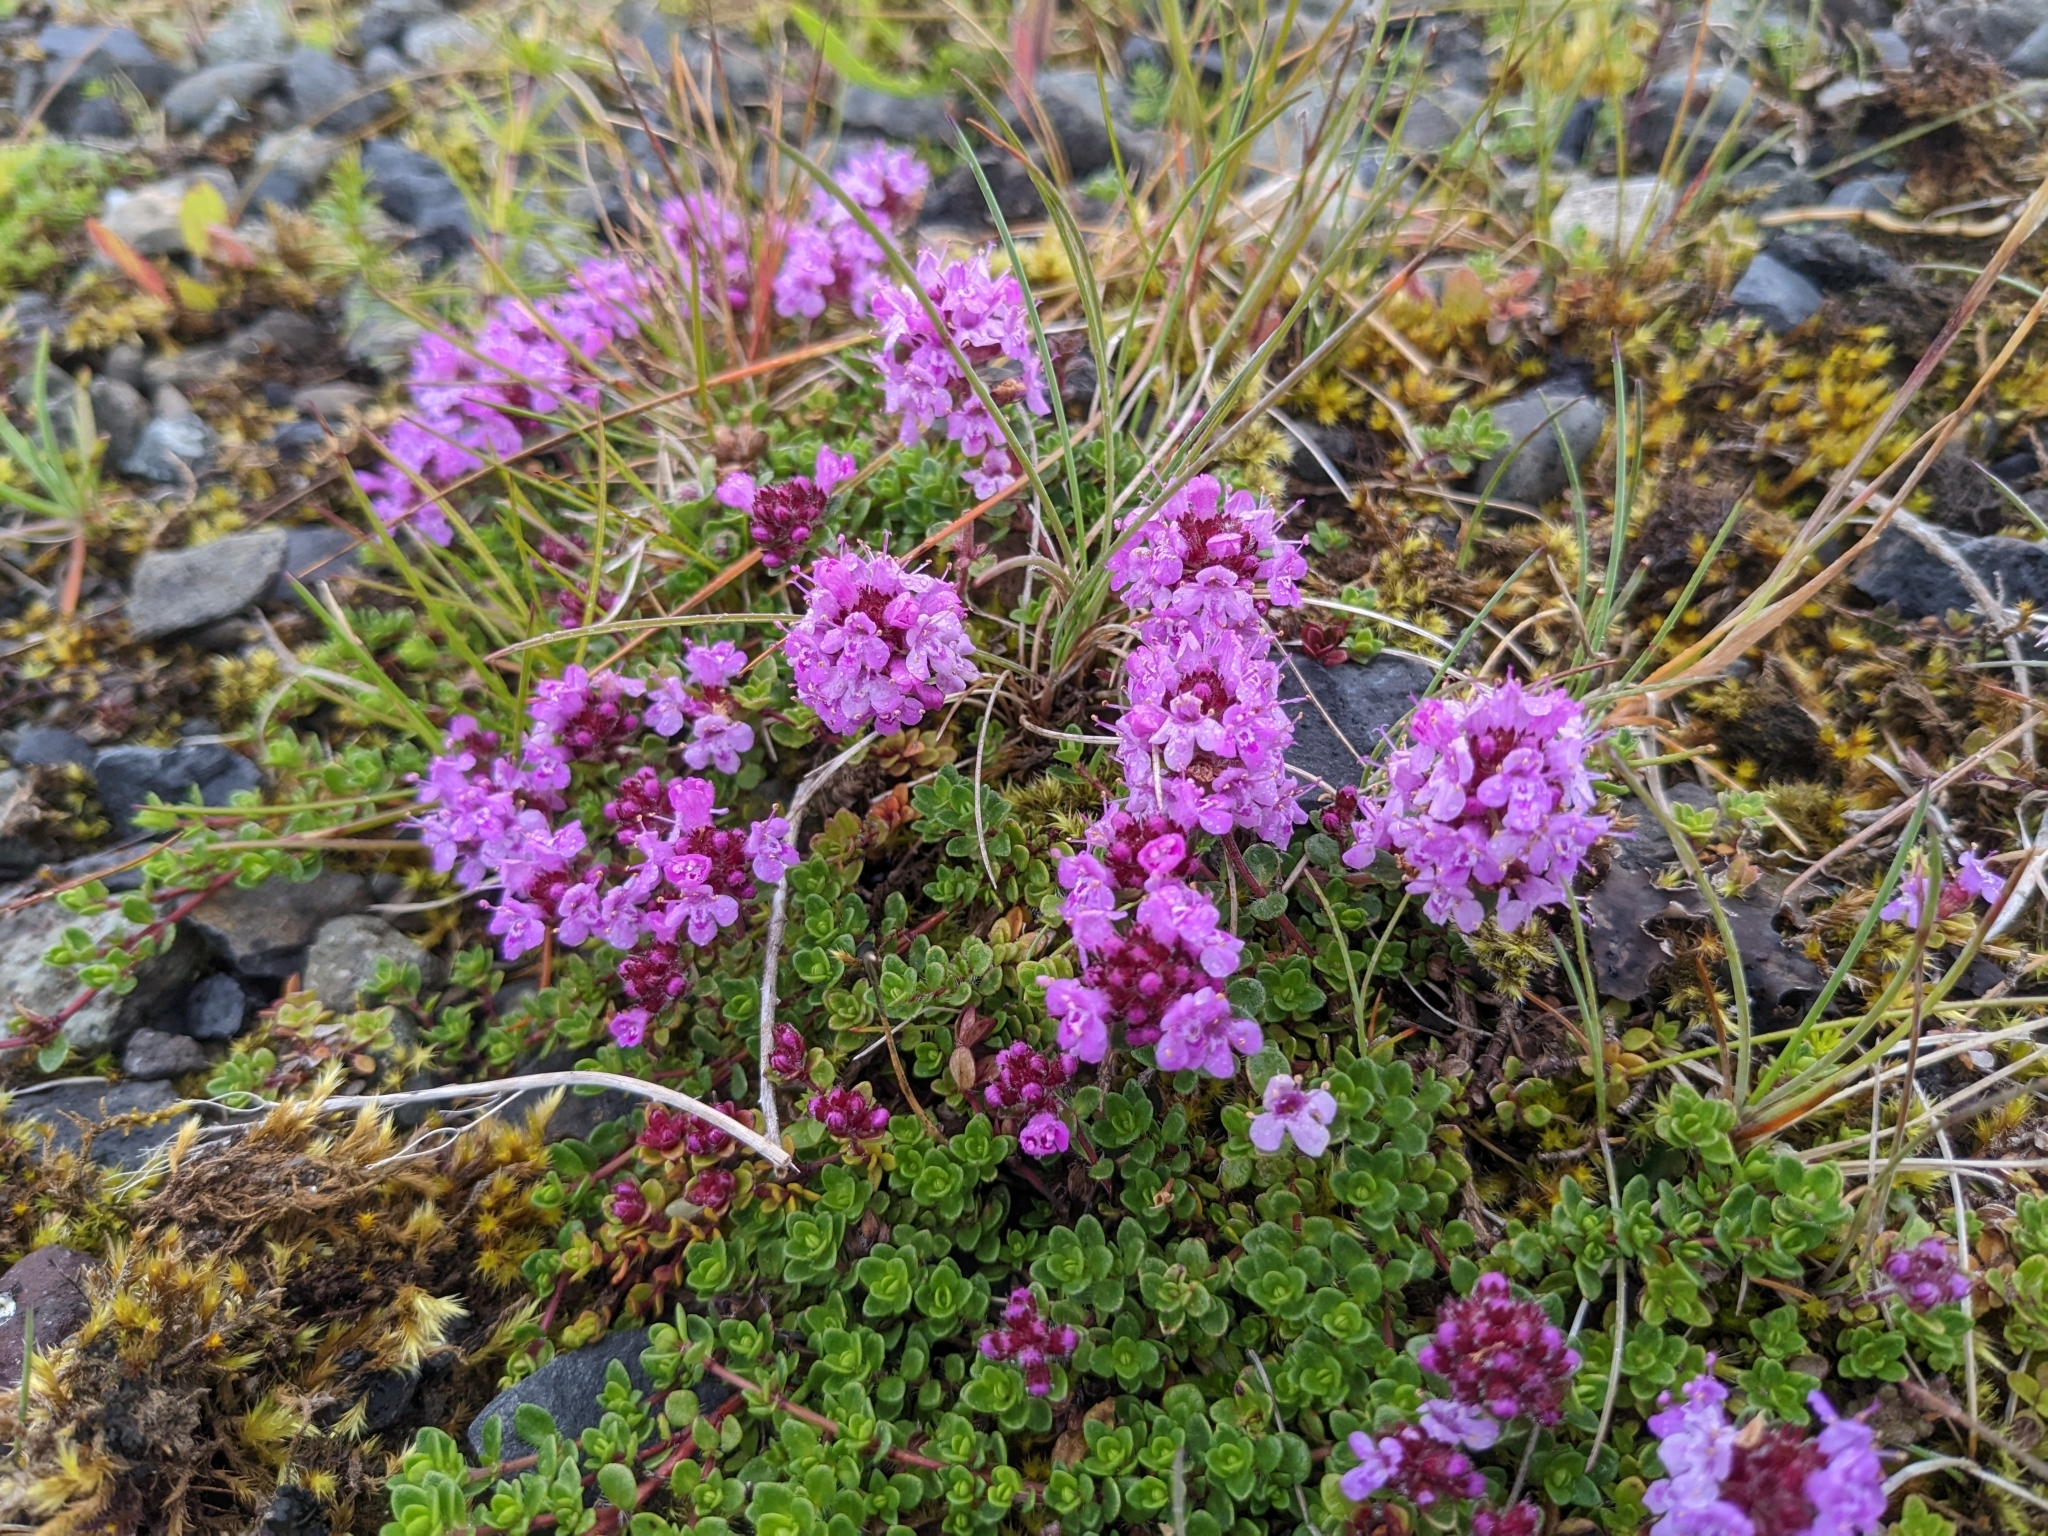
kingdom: Plantae
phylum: Tracheophyta
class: Magnoliopsida
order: Lamiales
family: Lamiaceae
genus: Thymus
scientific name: Thymus praecox
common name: Wild thyme
